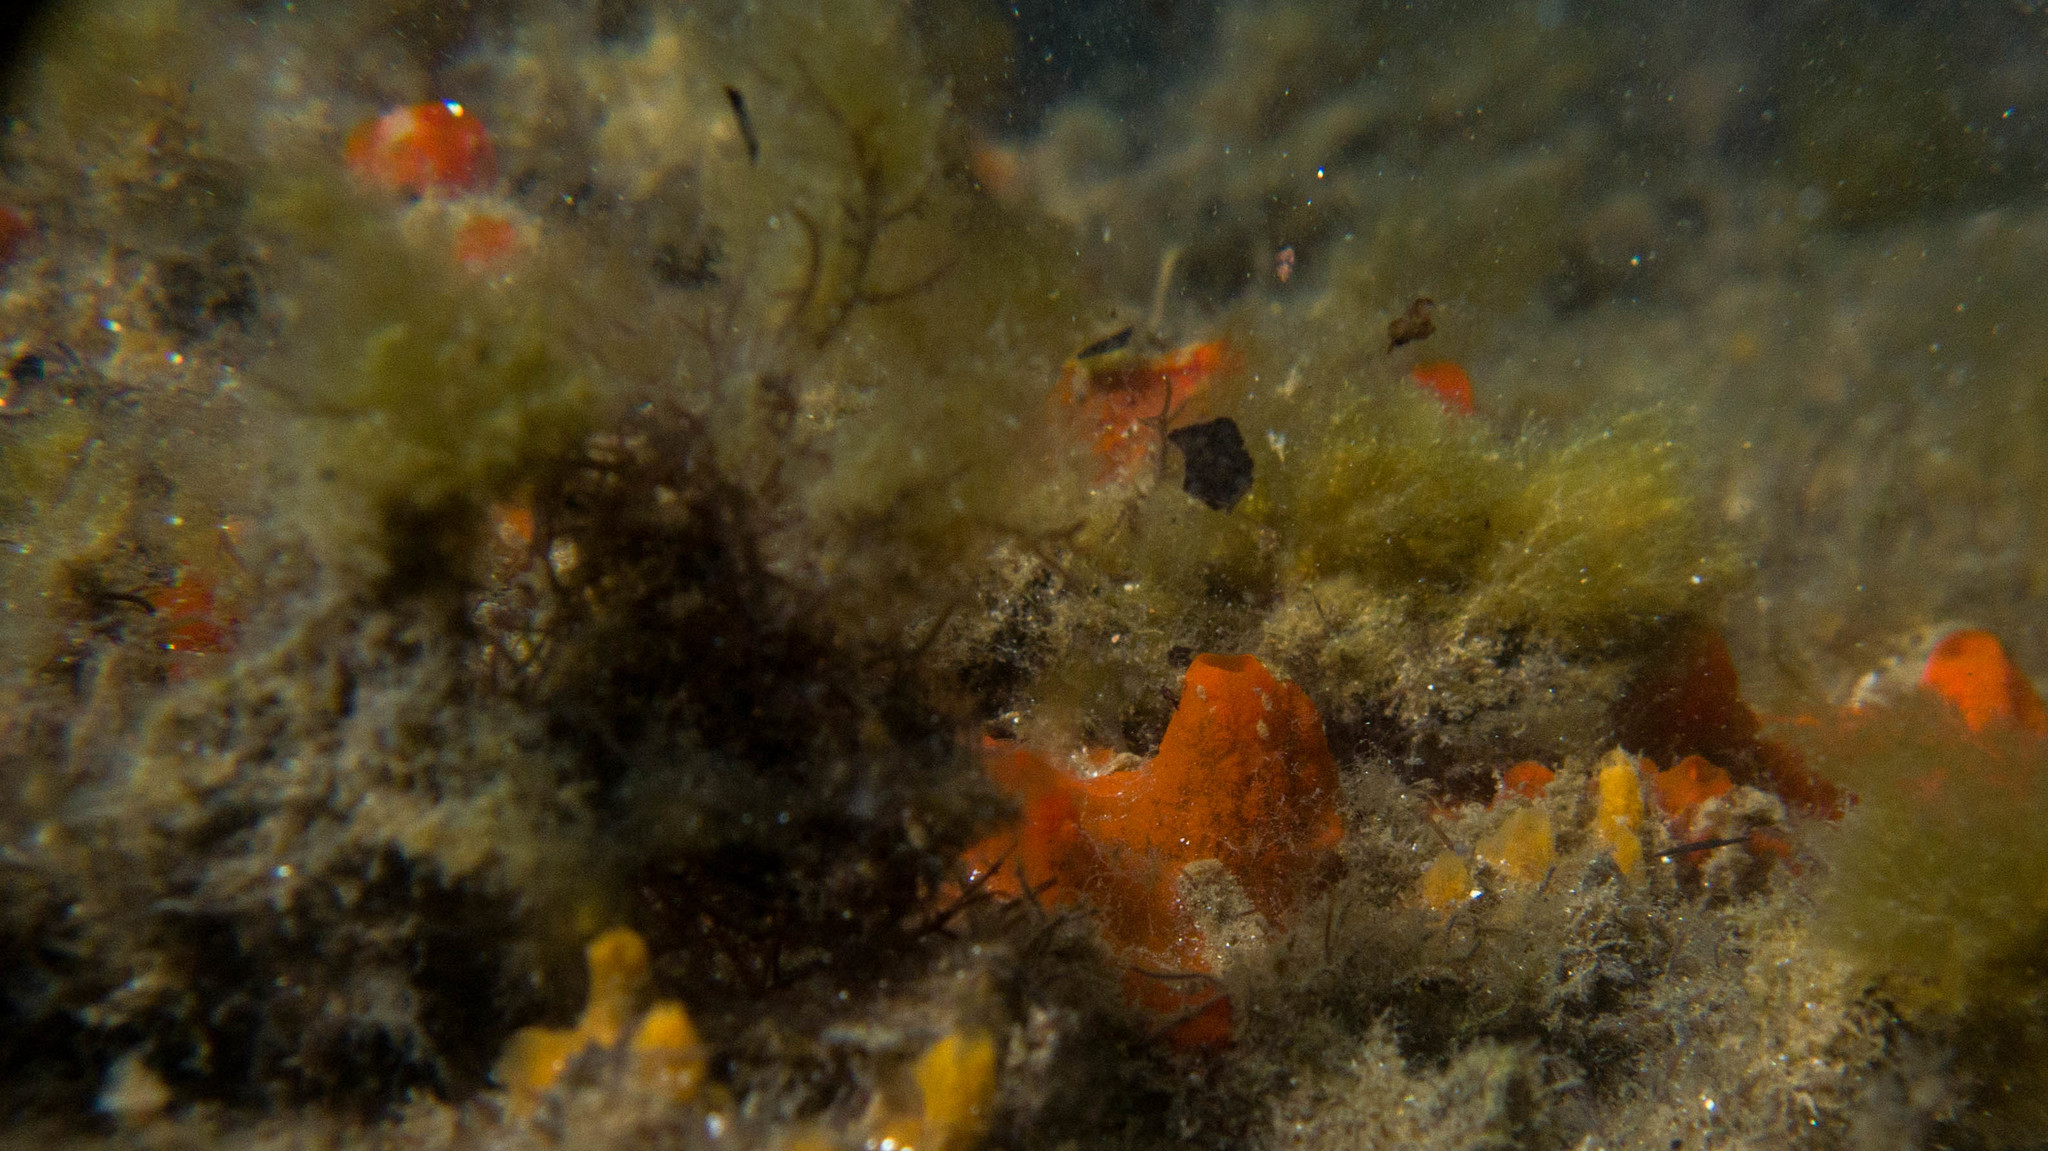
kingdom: Animalia
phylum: Porifera
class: Demospongiae
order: Poecilosclerida
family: Tedaniidae
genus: Tedania
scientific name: Tedania ignis
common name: Sponge
